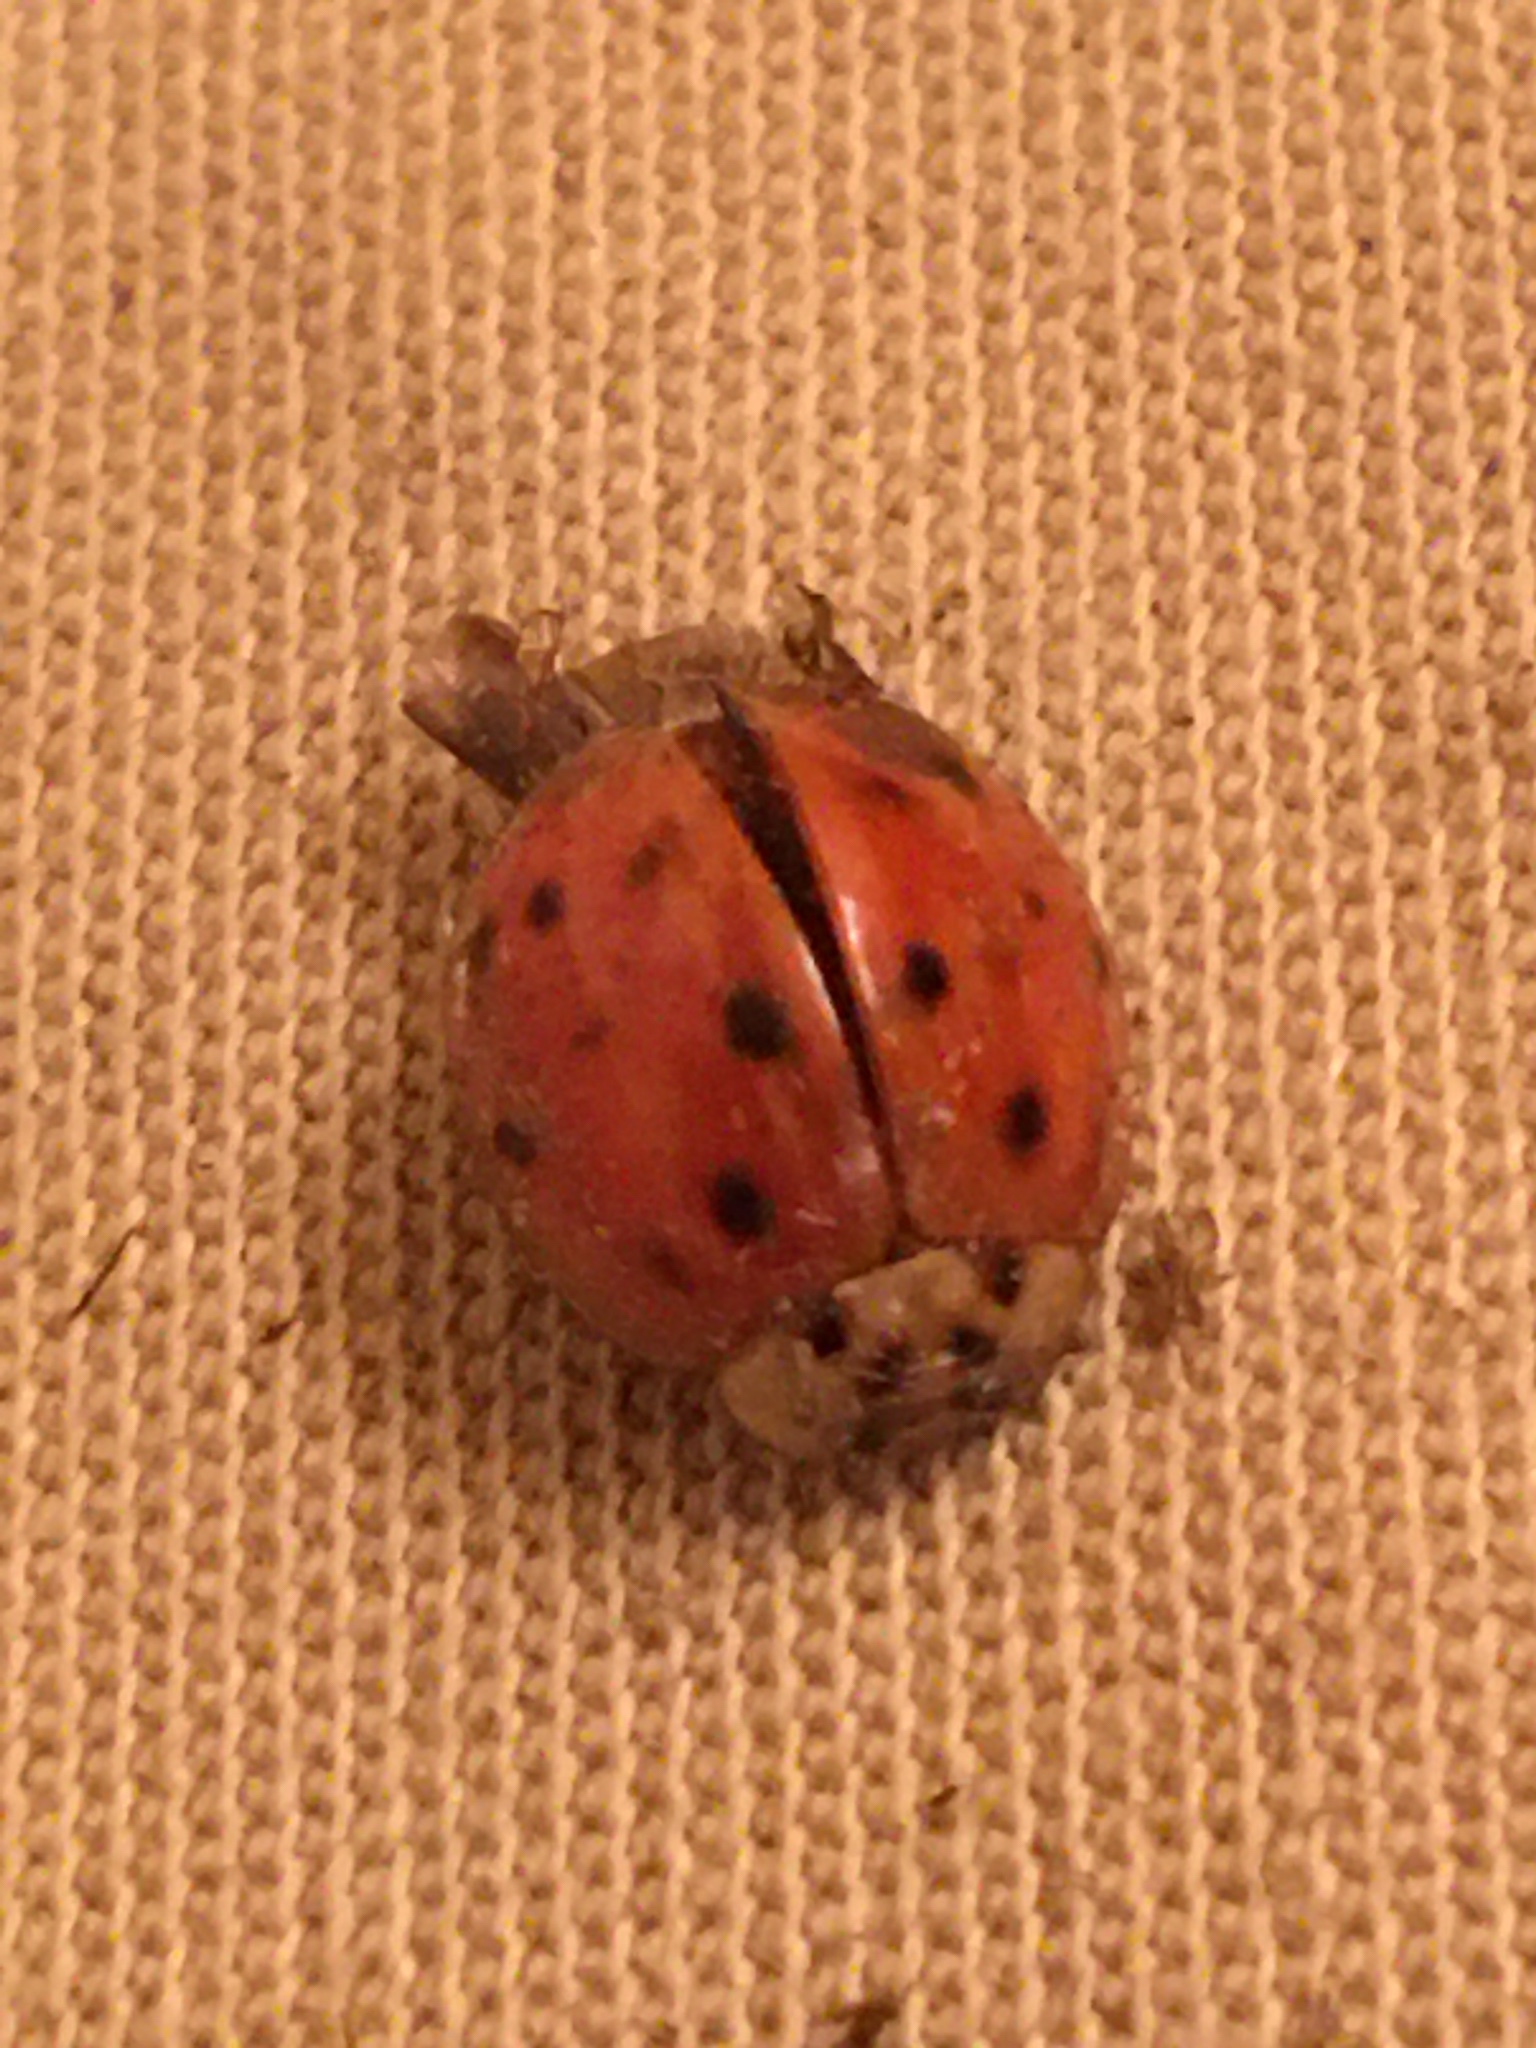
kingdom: Animalia
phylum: Arthropoda
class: Insecta
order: Coleoptera
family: Coccinellidae
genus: Harmonia
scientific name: Harmonia axyridis
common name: Harlequin ladybird
